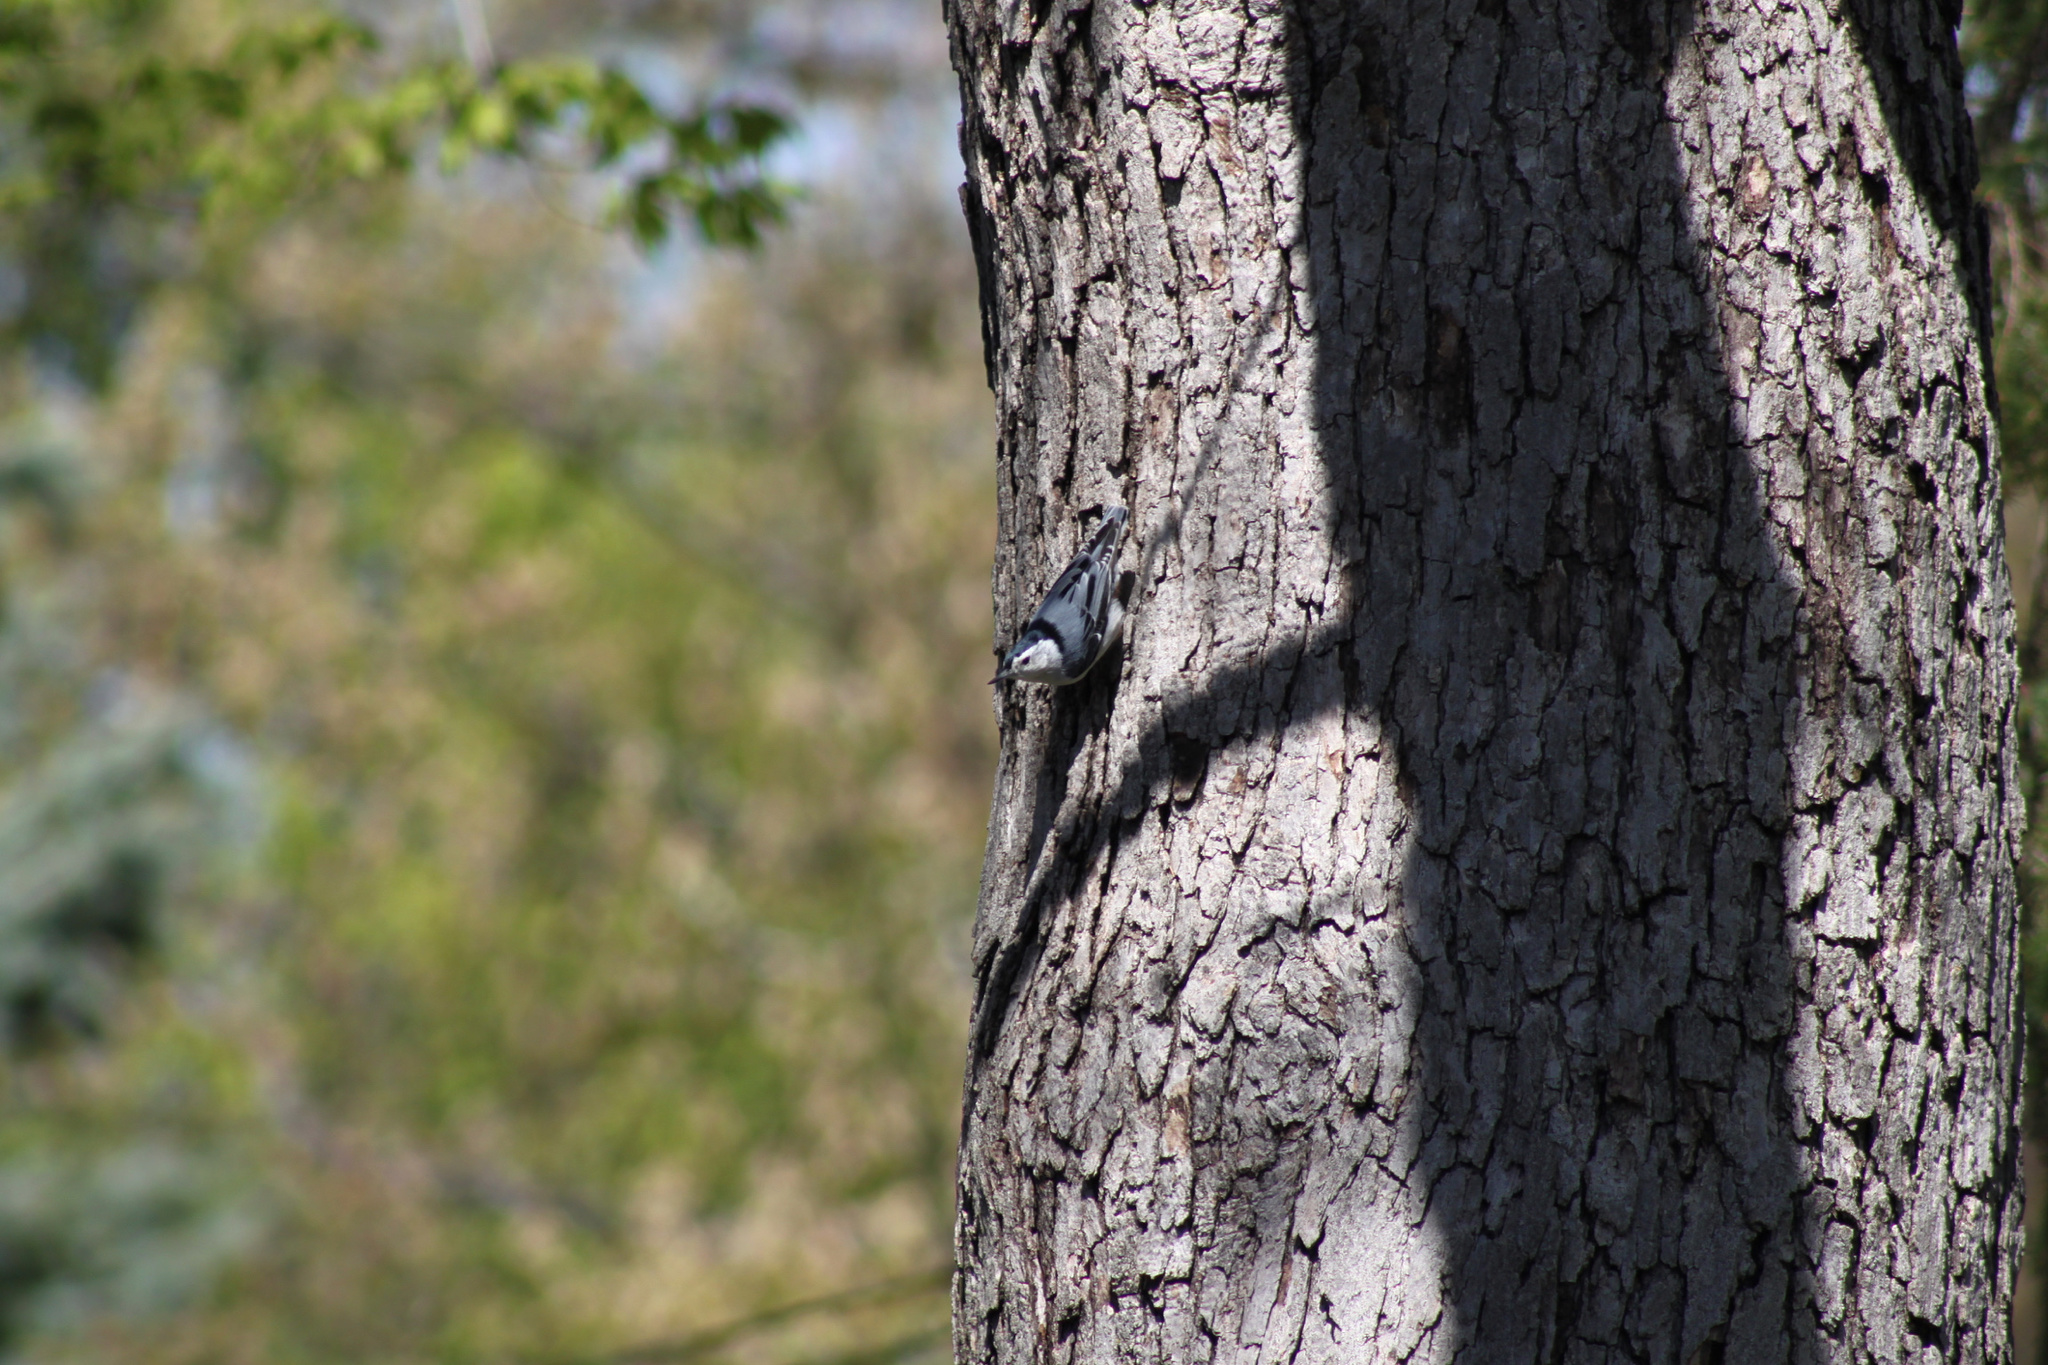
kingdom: Animalia
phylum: Chordata
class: Aves
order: Passeriformes
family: Sittidae
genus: Sitta
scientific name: Sitta carolinensis
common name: White-breasted nuthatch
